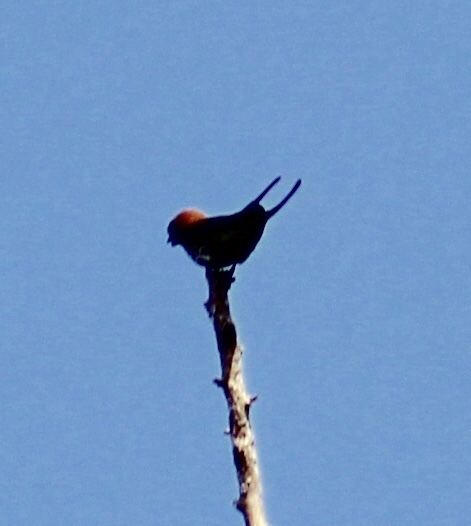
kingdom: Animalia
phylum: Chordata
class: Aves
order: Passeriformes
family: Hirundinidae
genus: Cecropis
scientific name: Cecropis abyssinica
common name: Lesser striped-swallow
